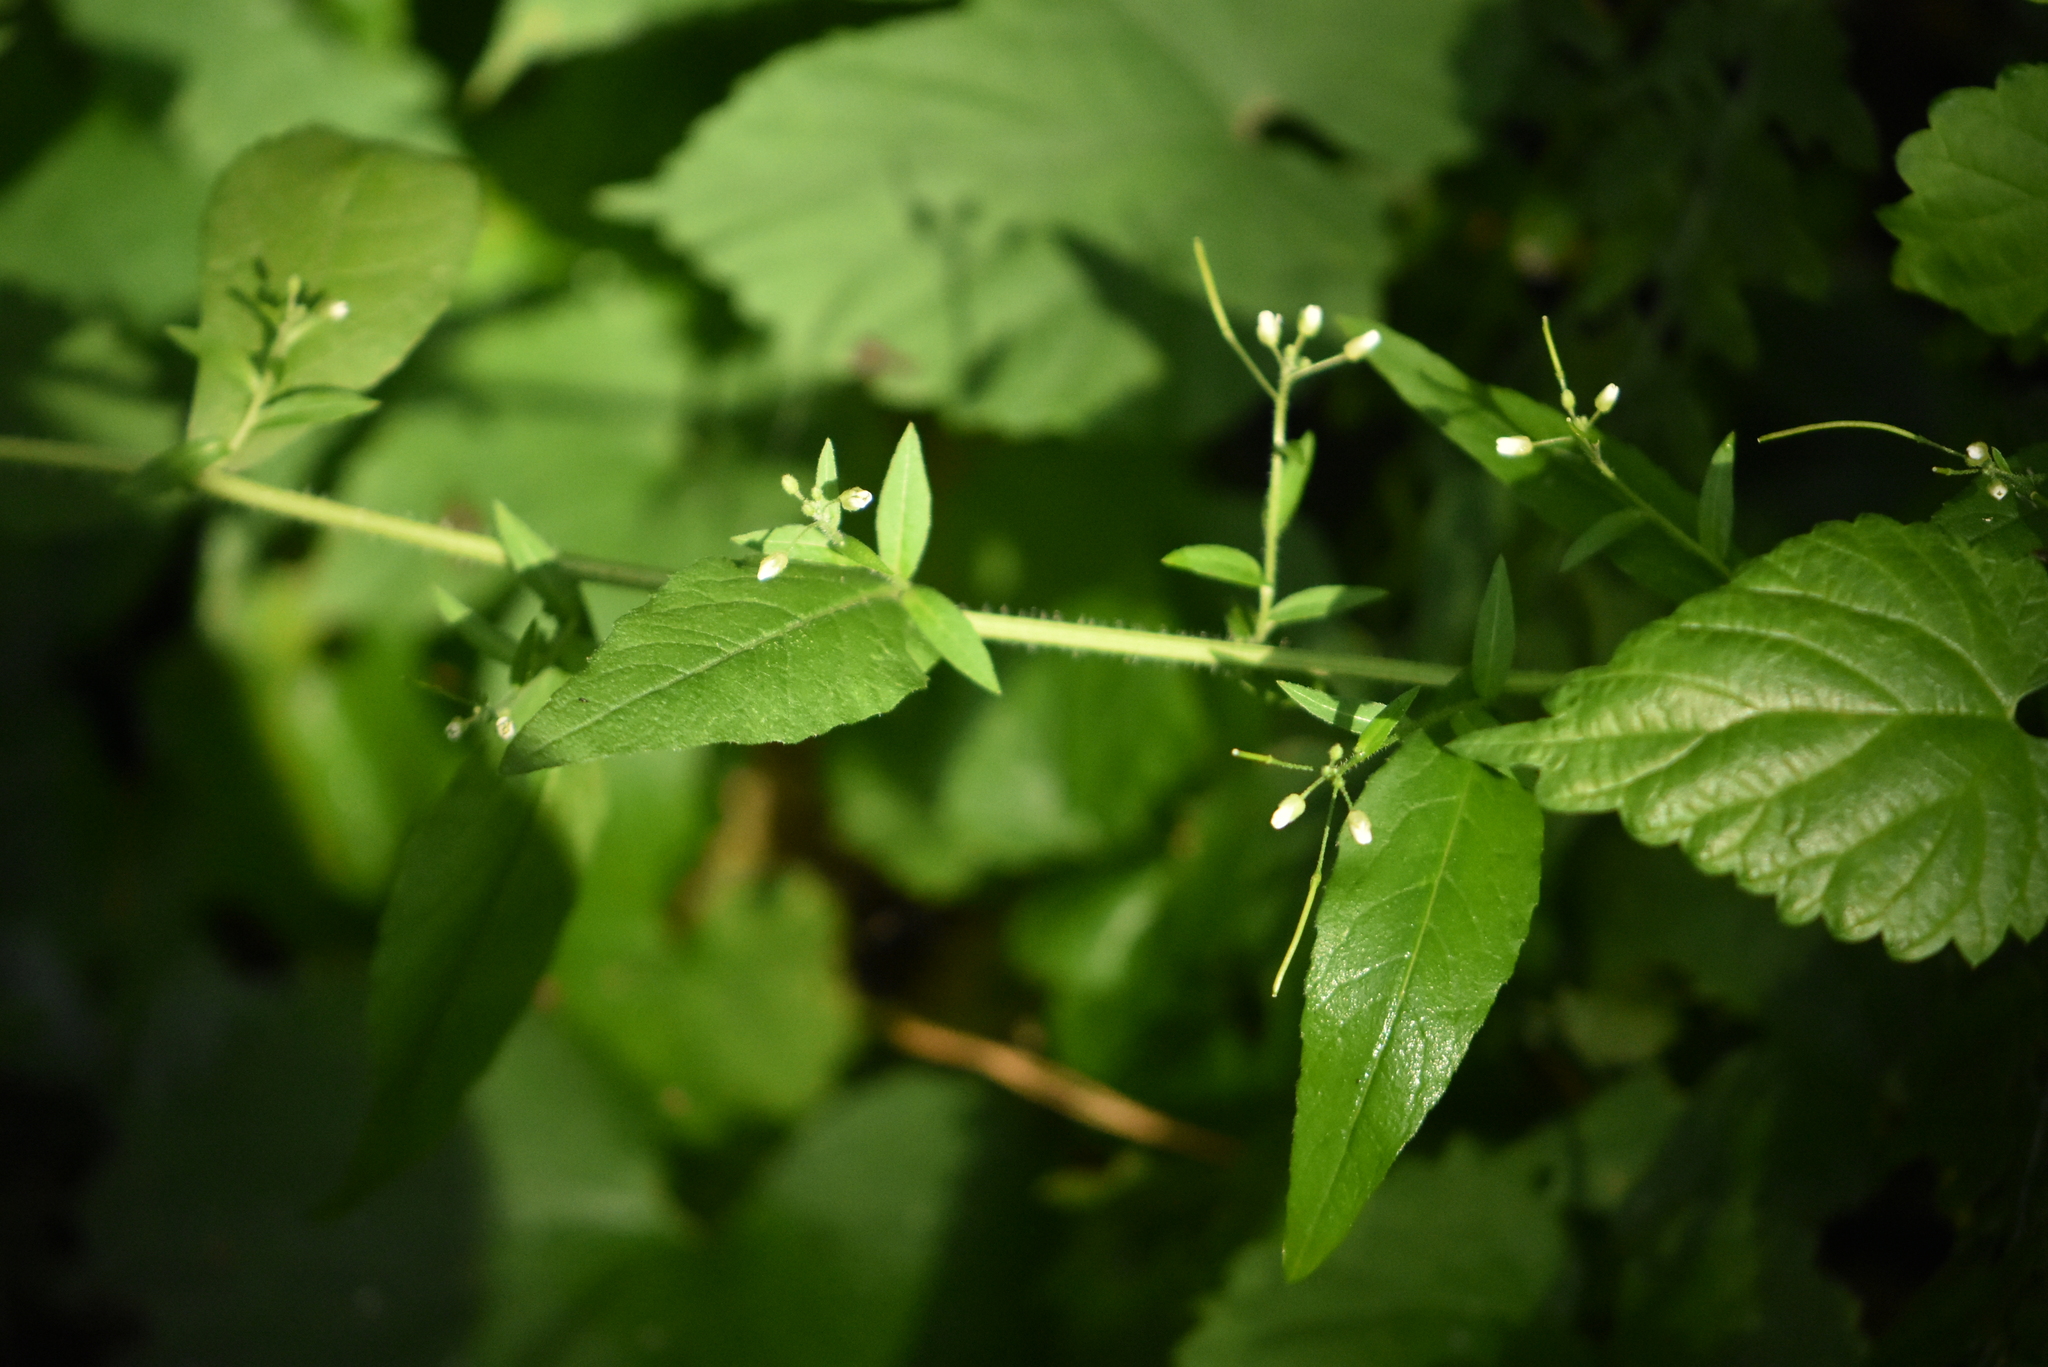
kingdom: Plantae
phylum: Tracheophyta
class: Magnoliopsida
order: Brassicales
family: Brassicaceae
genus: Catolobus
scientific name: Catolobus pendulus
